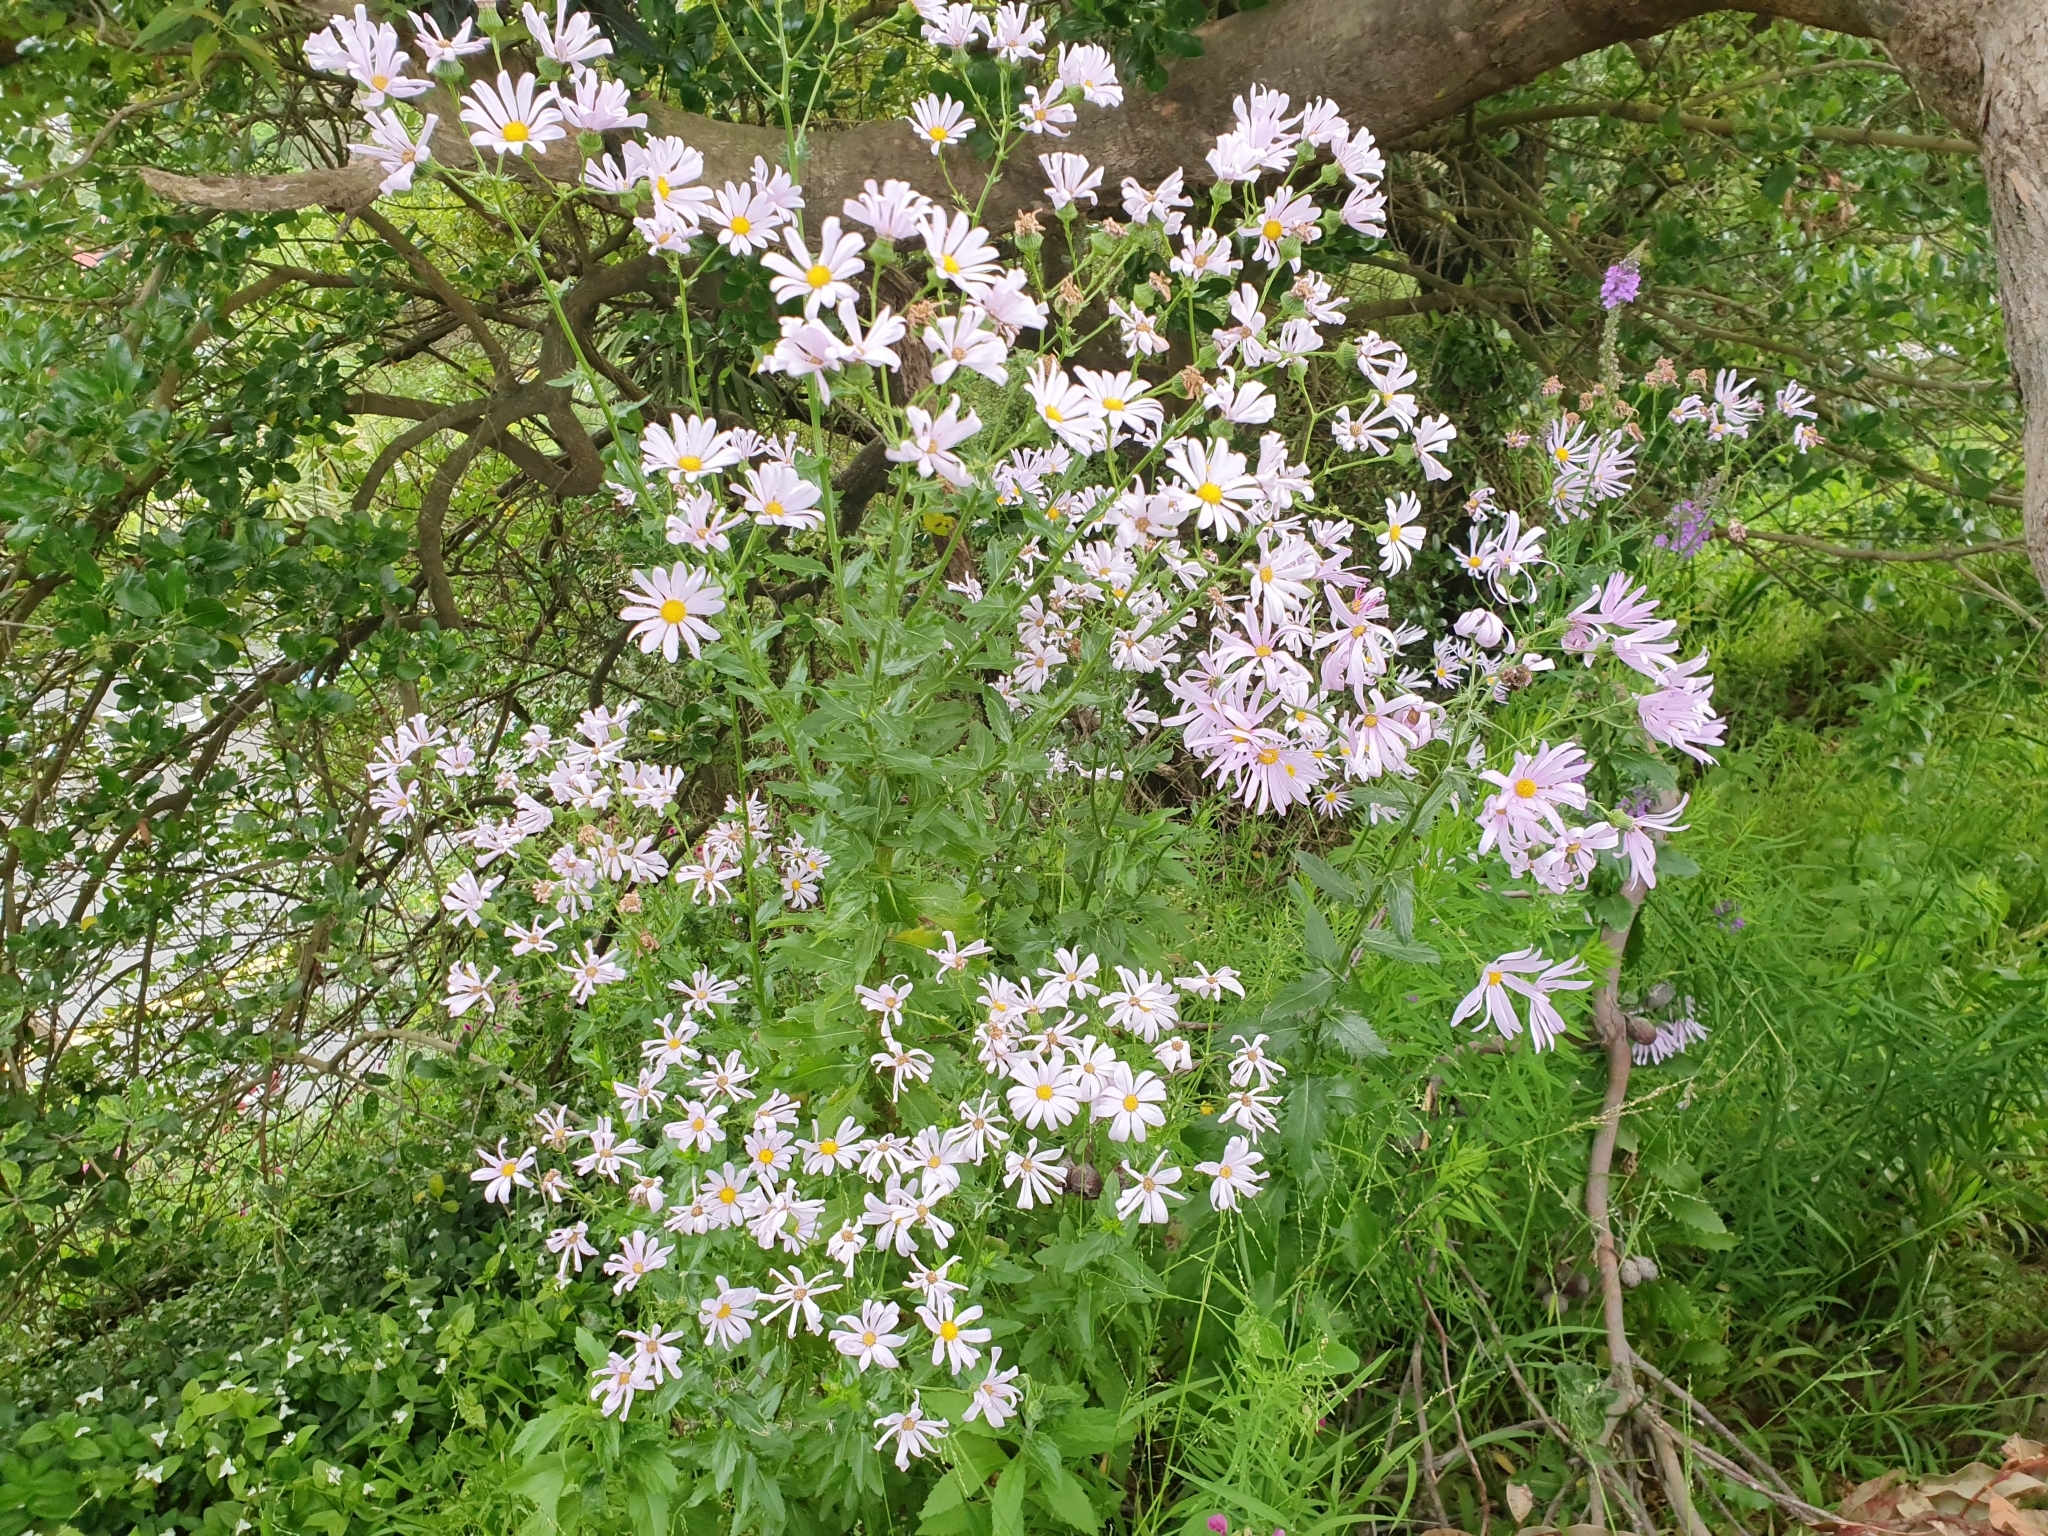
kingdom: Plantae
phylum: Tracheophyta
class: Magnoliopsida
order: Asterales
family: Asteraceae
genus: Senecio
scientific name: Senecio glastifolius
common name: Woad-leaved ragwort
